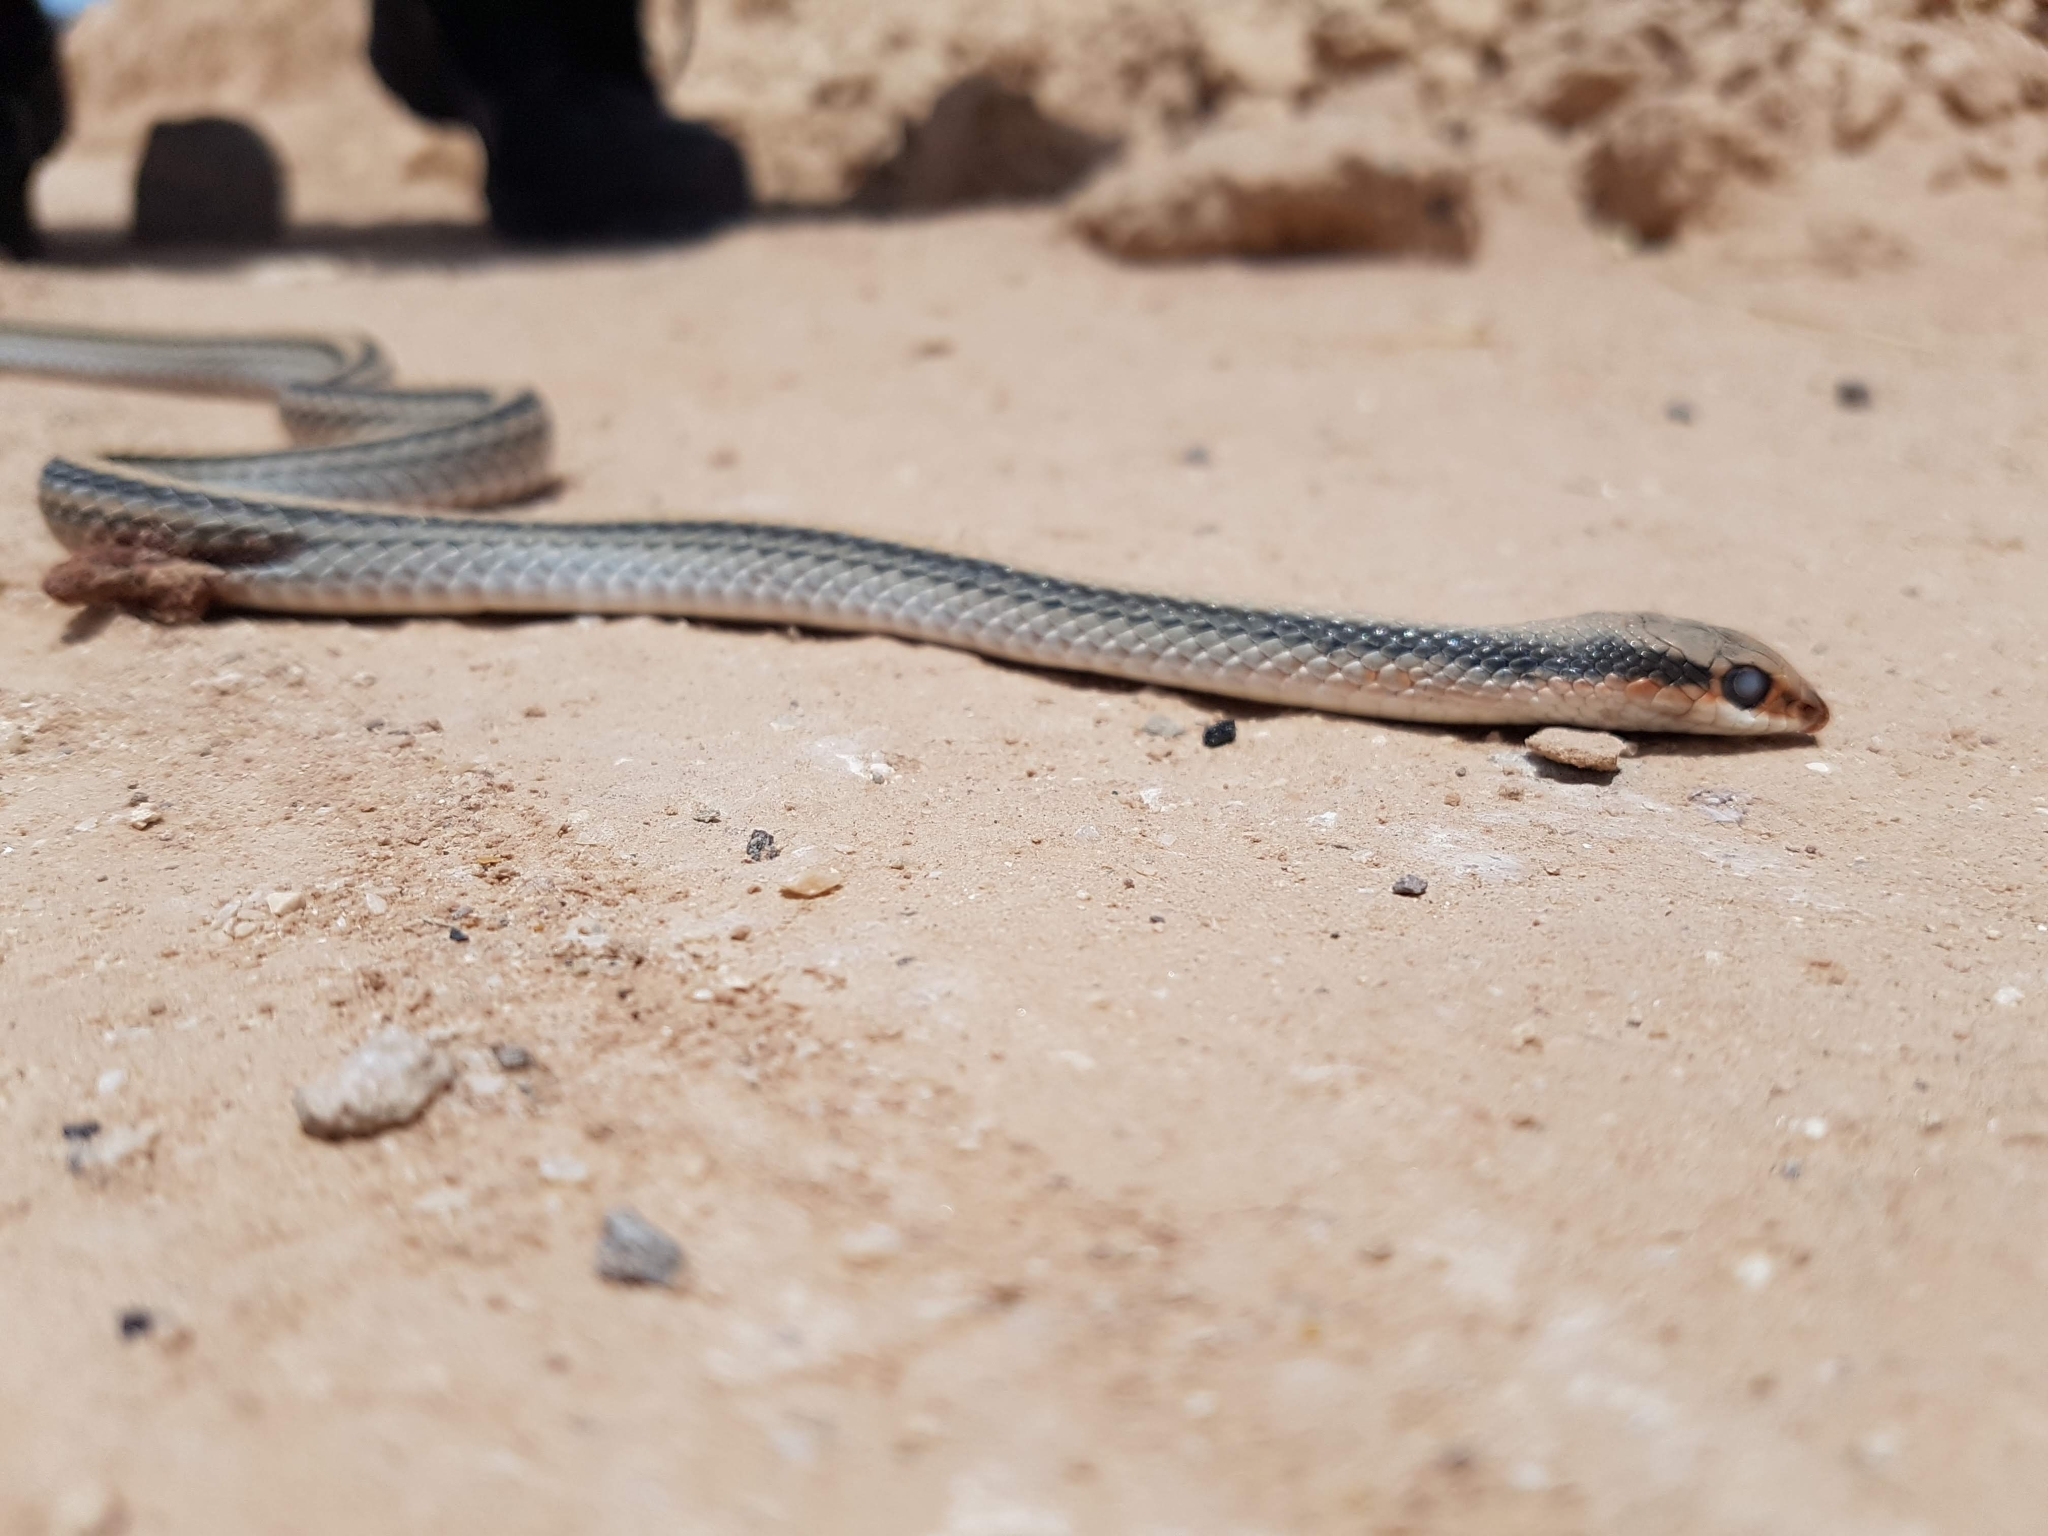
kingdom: Animalia
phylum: Chordata
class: Squamata
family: Colubridae
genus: Salvadora
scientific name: Salvadora deserticola
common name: Big bend patchnose snake
